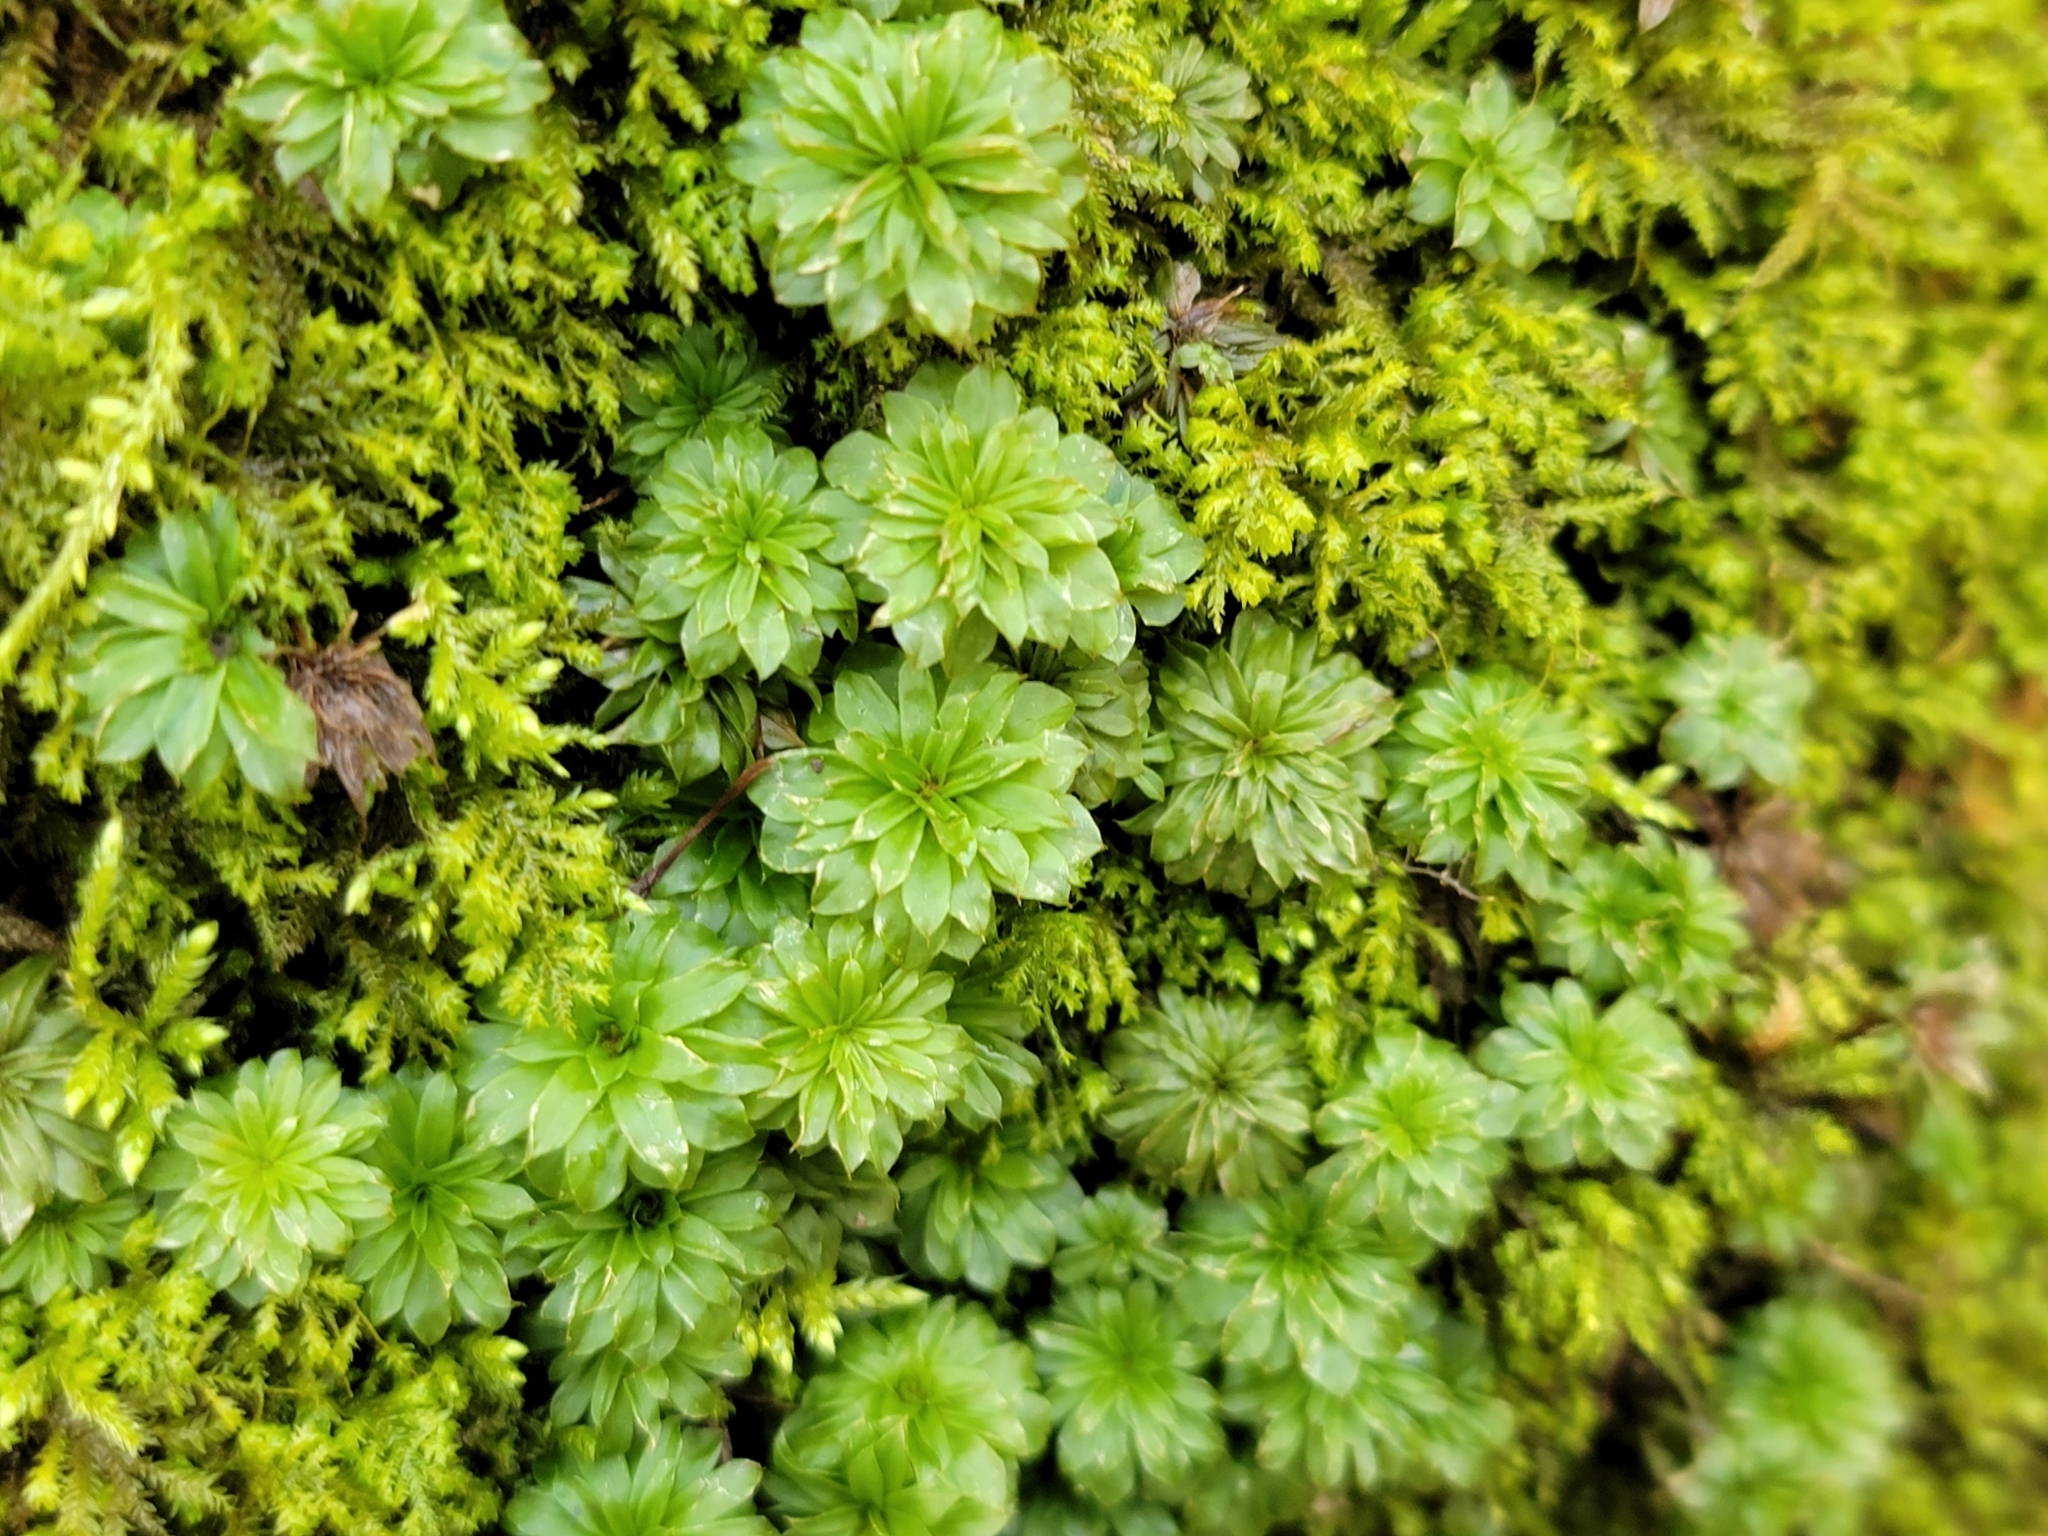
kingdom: Plantae
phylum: Bryophyta
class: Bryopsida
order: Bryales
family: Bryaceae
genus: Rhodobryum
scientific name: Rhodobryum ontariense
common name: Ontario rhodobryum moss
